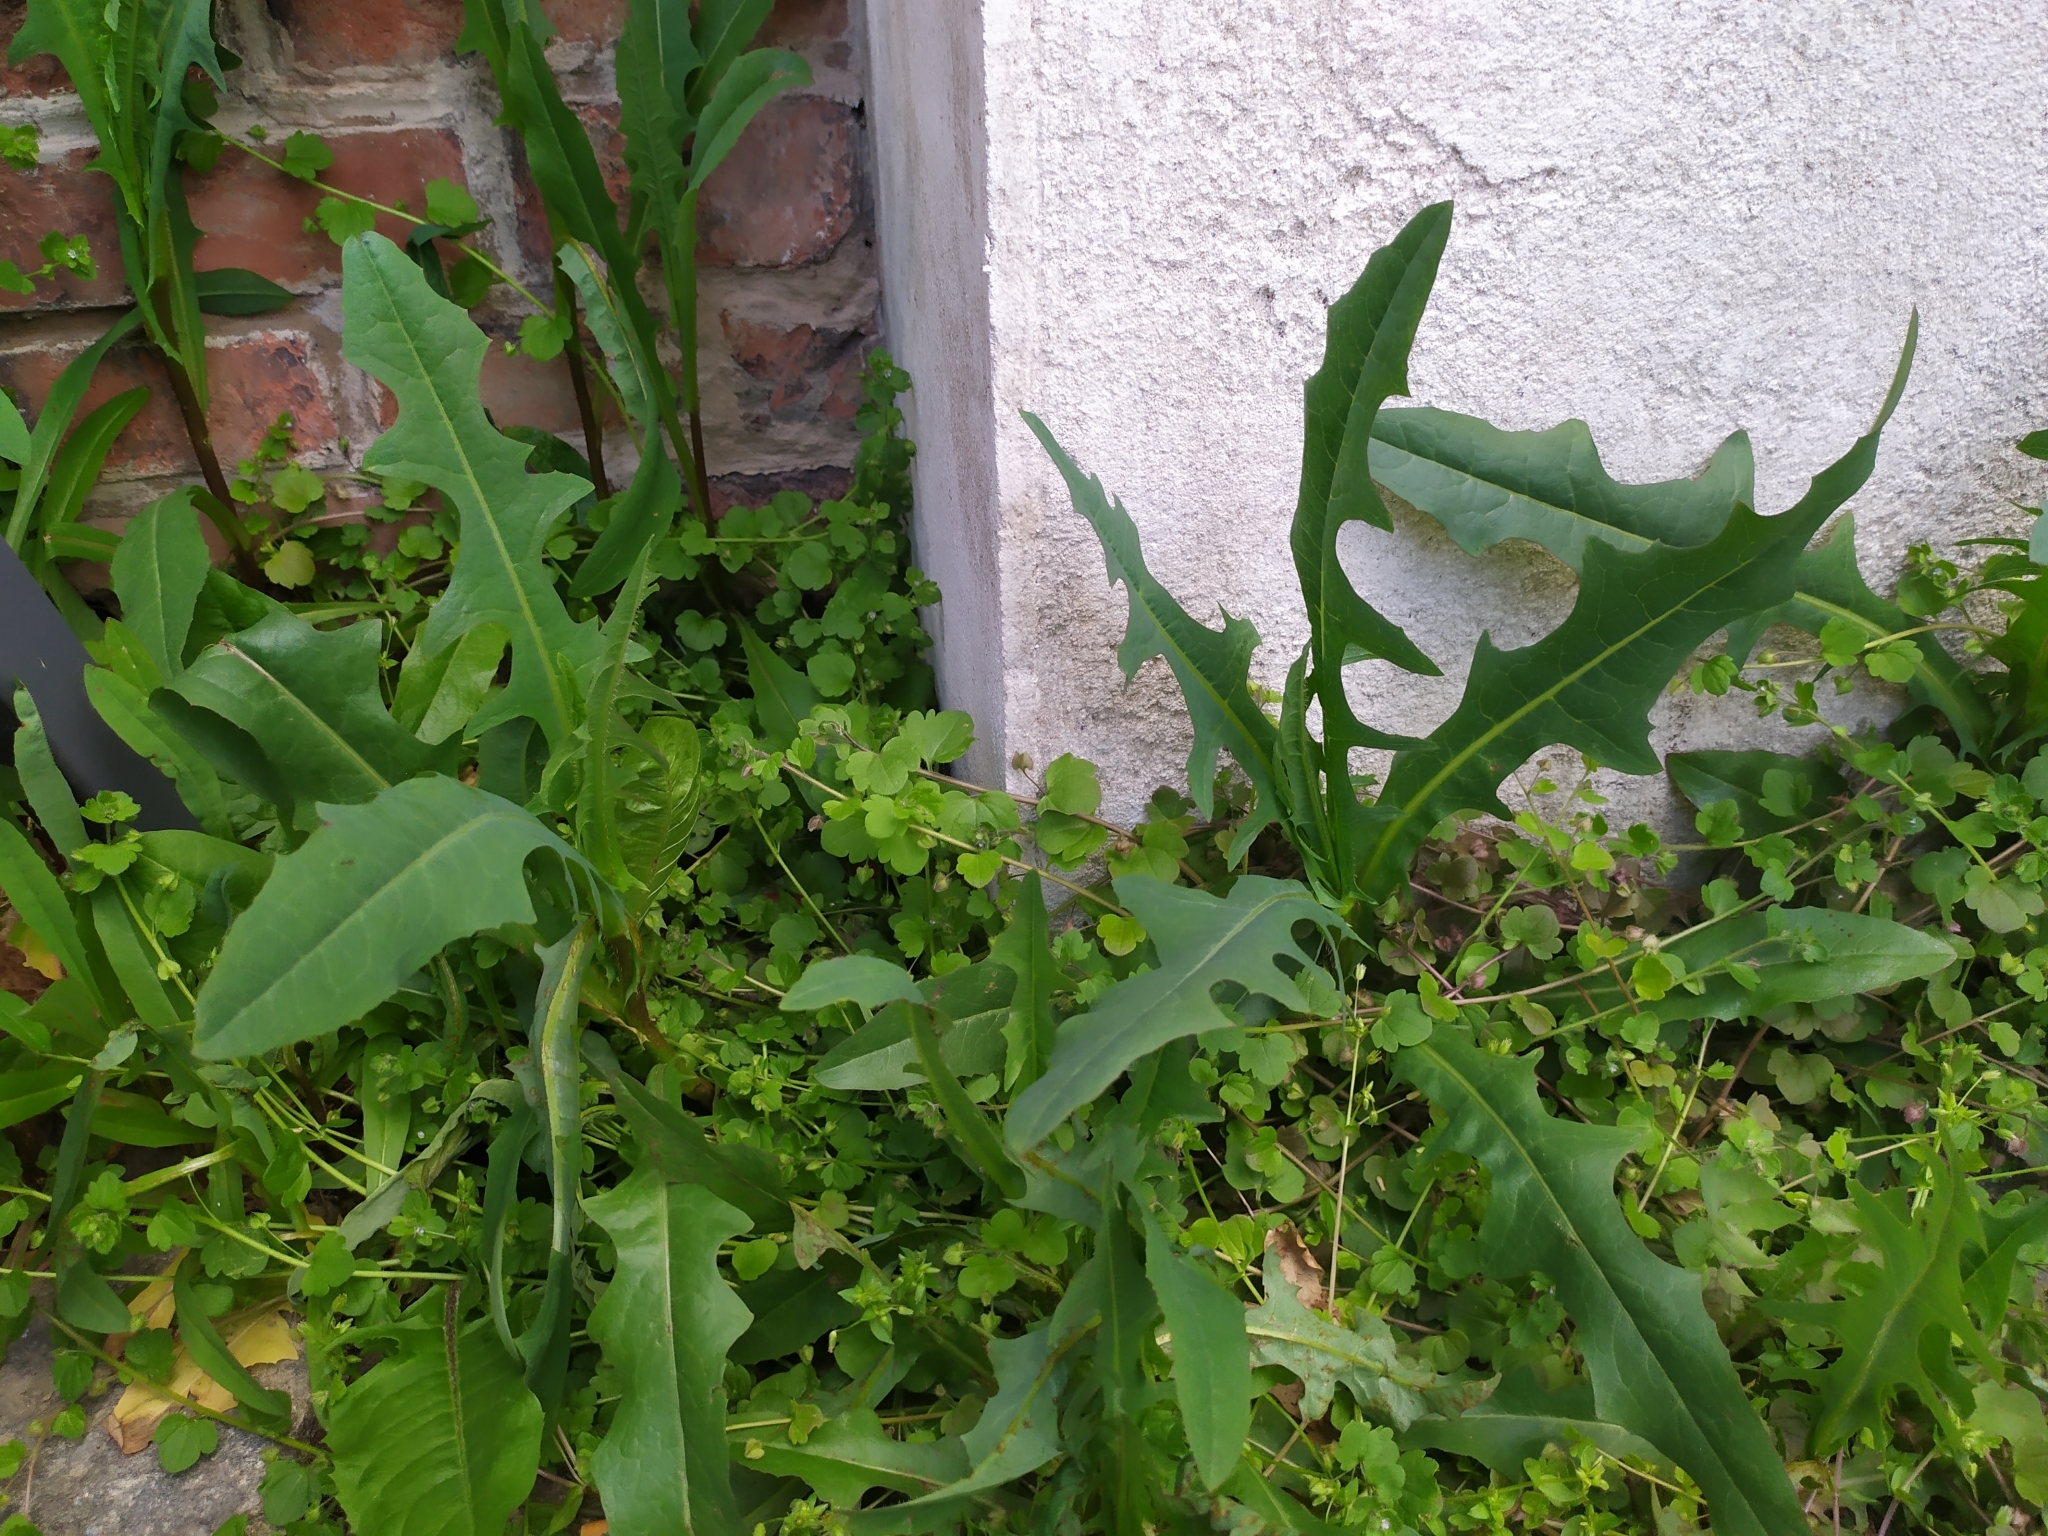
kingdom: Plantae
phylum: Tracheophyta
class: Magnoliopsida
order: Asterales
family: Asteraceae
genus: Lactuca
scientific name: Lactuca serriola
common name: Prickly lettuce
